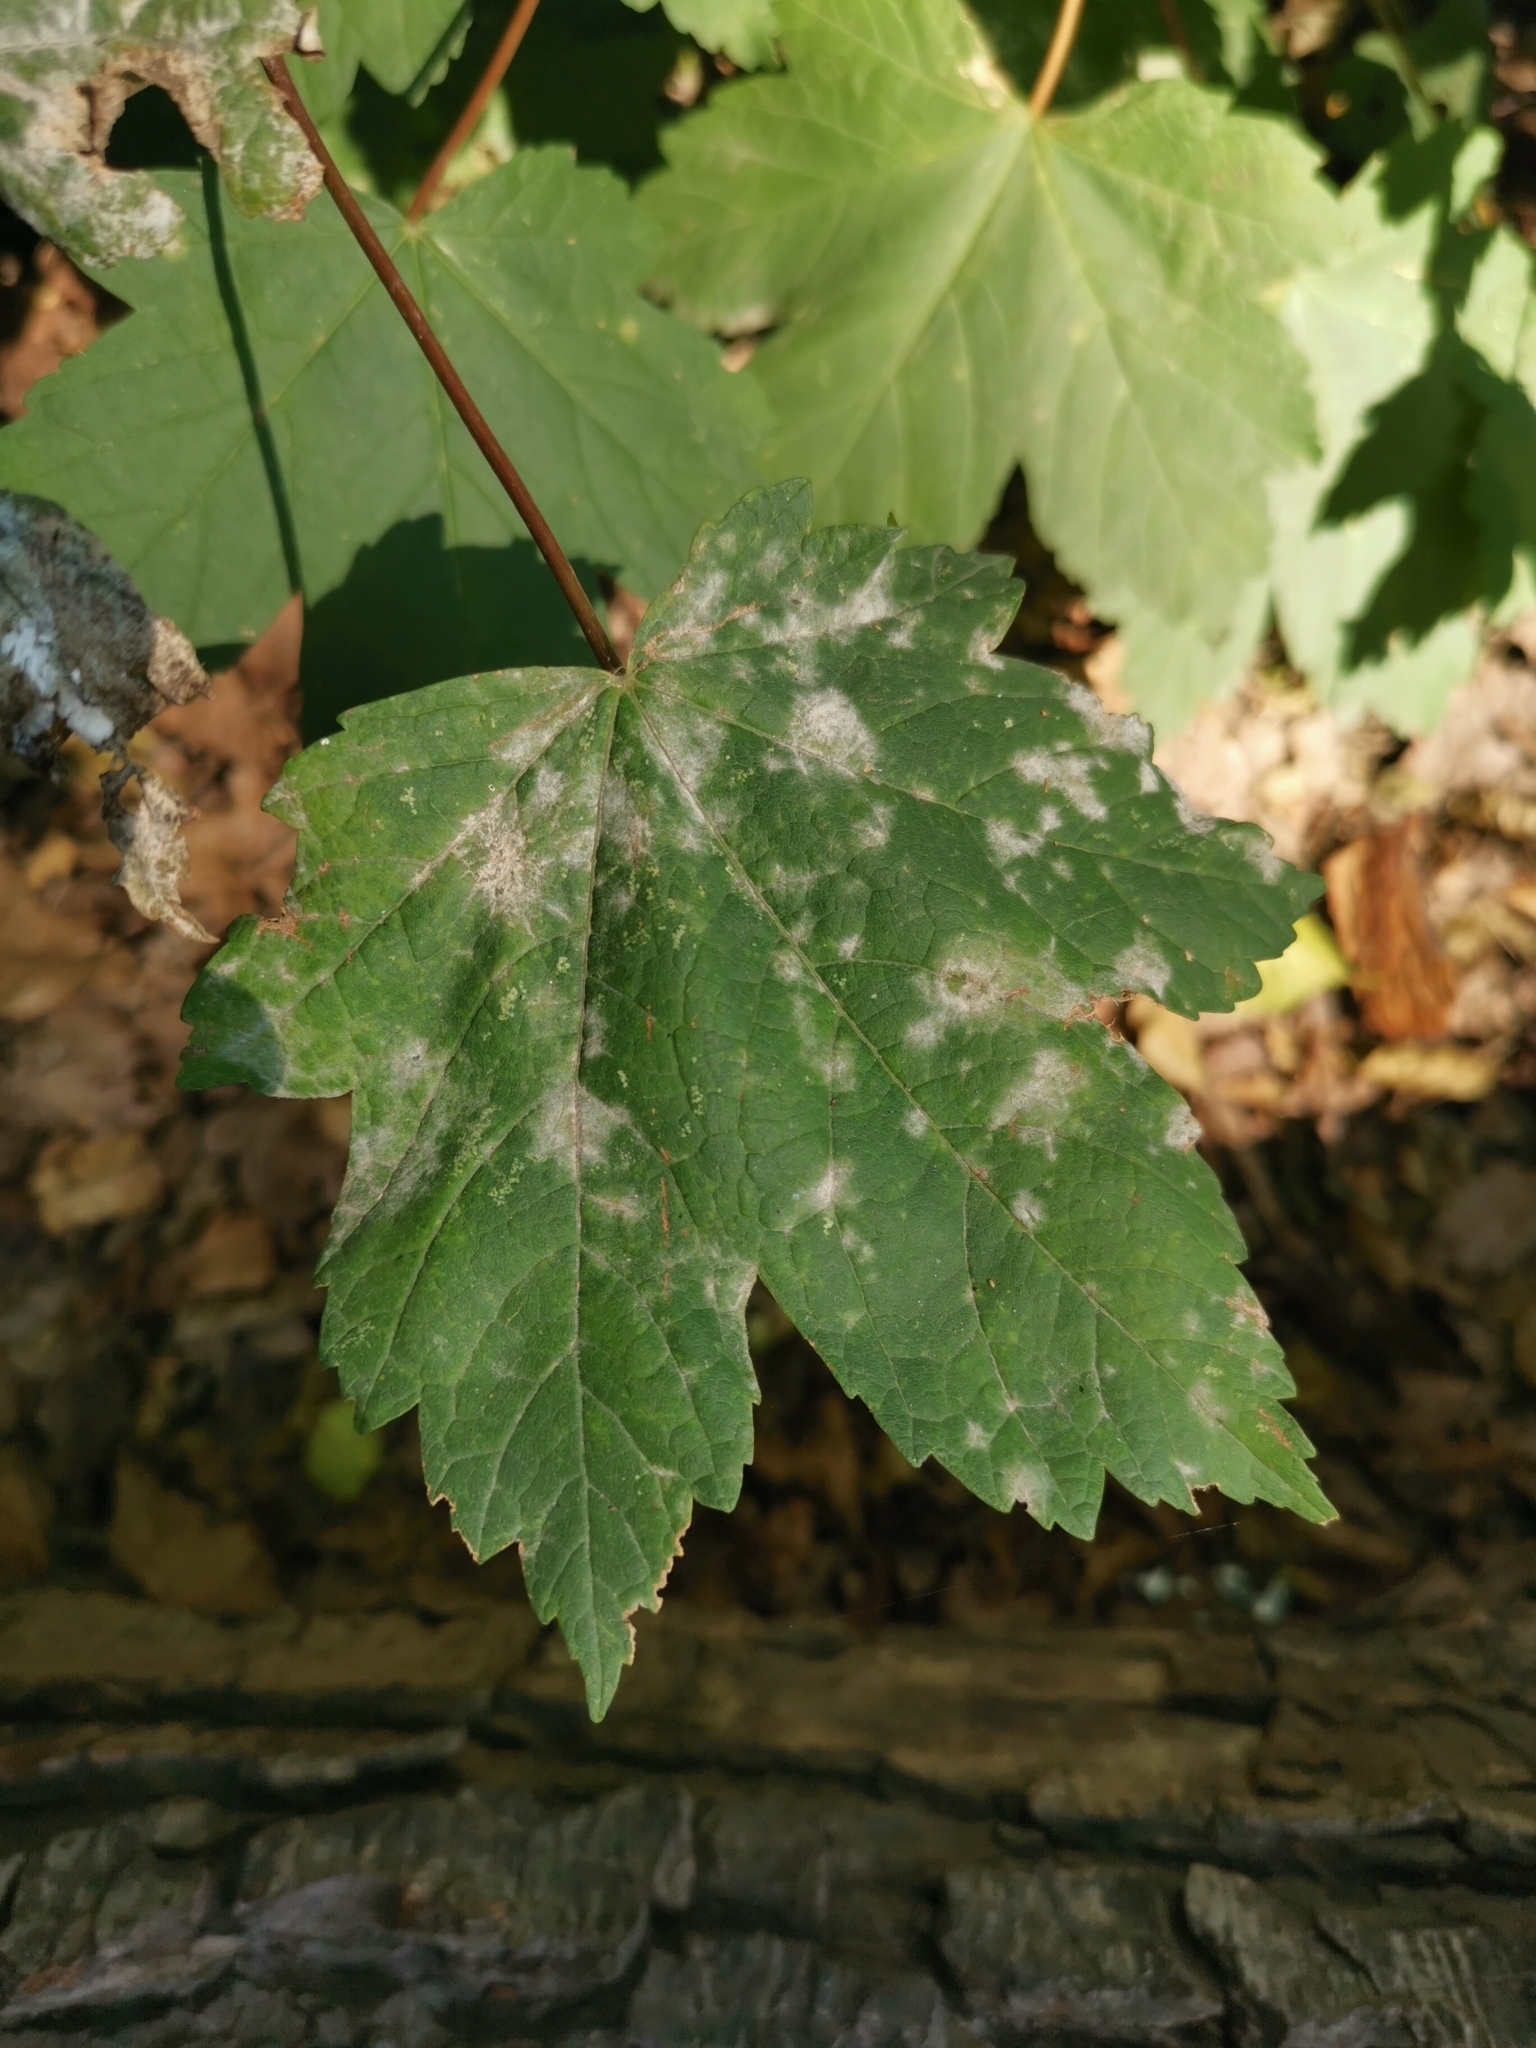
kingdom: Plantae
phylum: Tracheophyta
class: Magnoliopsida
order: Sapindales
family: Sapindaceae
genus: Acer
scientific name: Acer pseudoplatanus
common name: Sycamore
